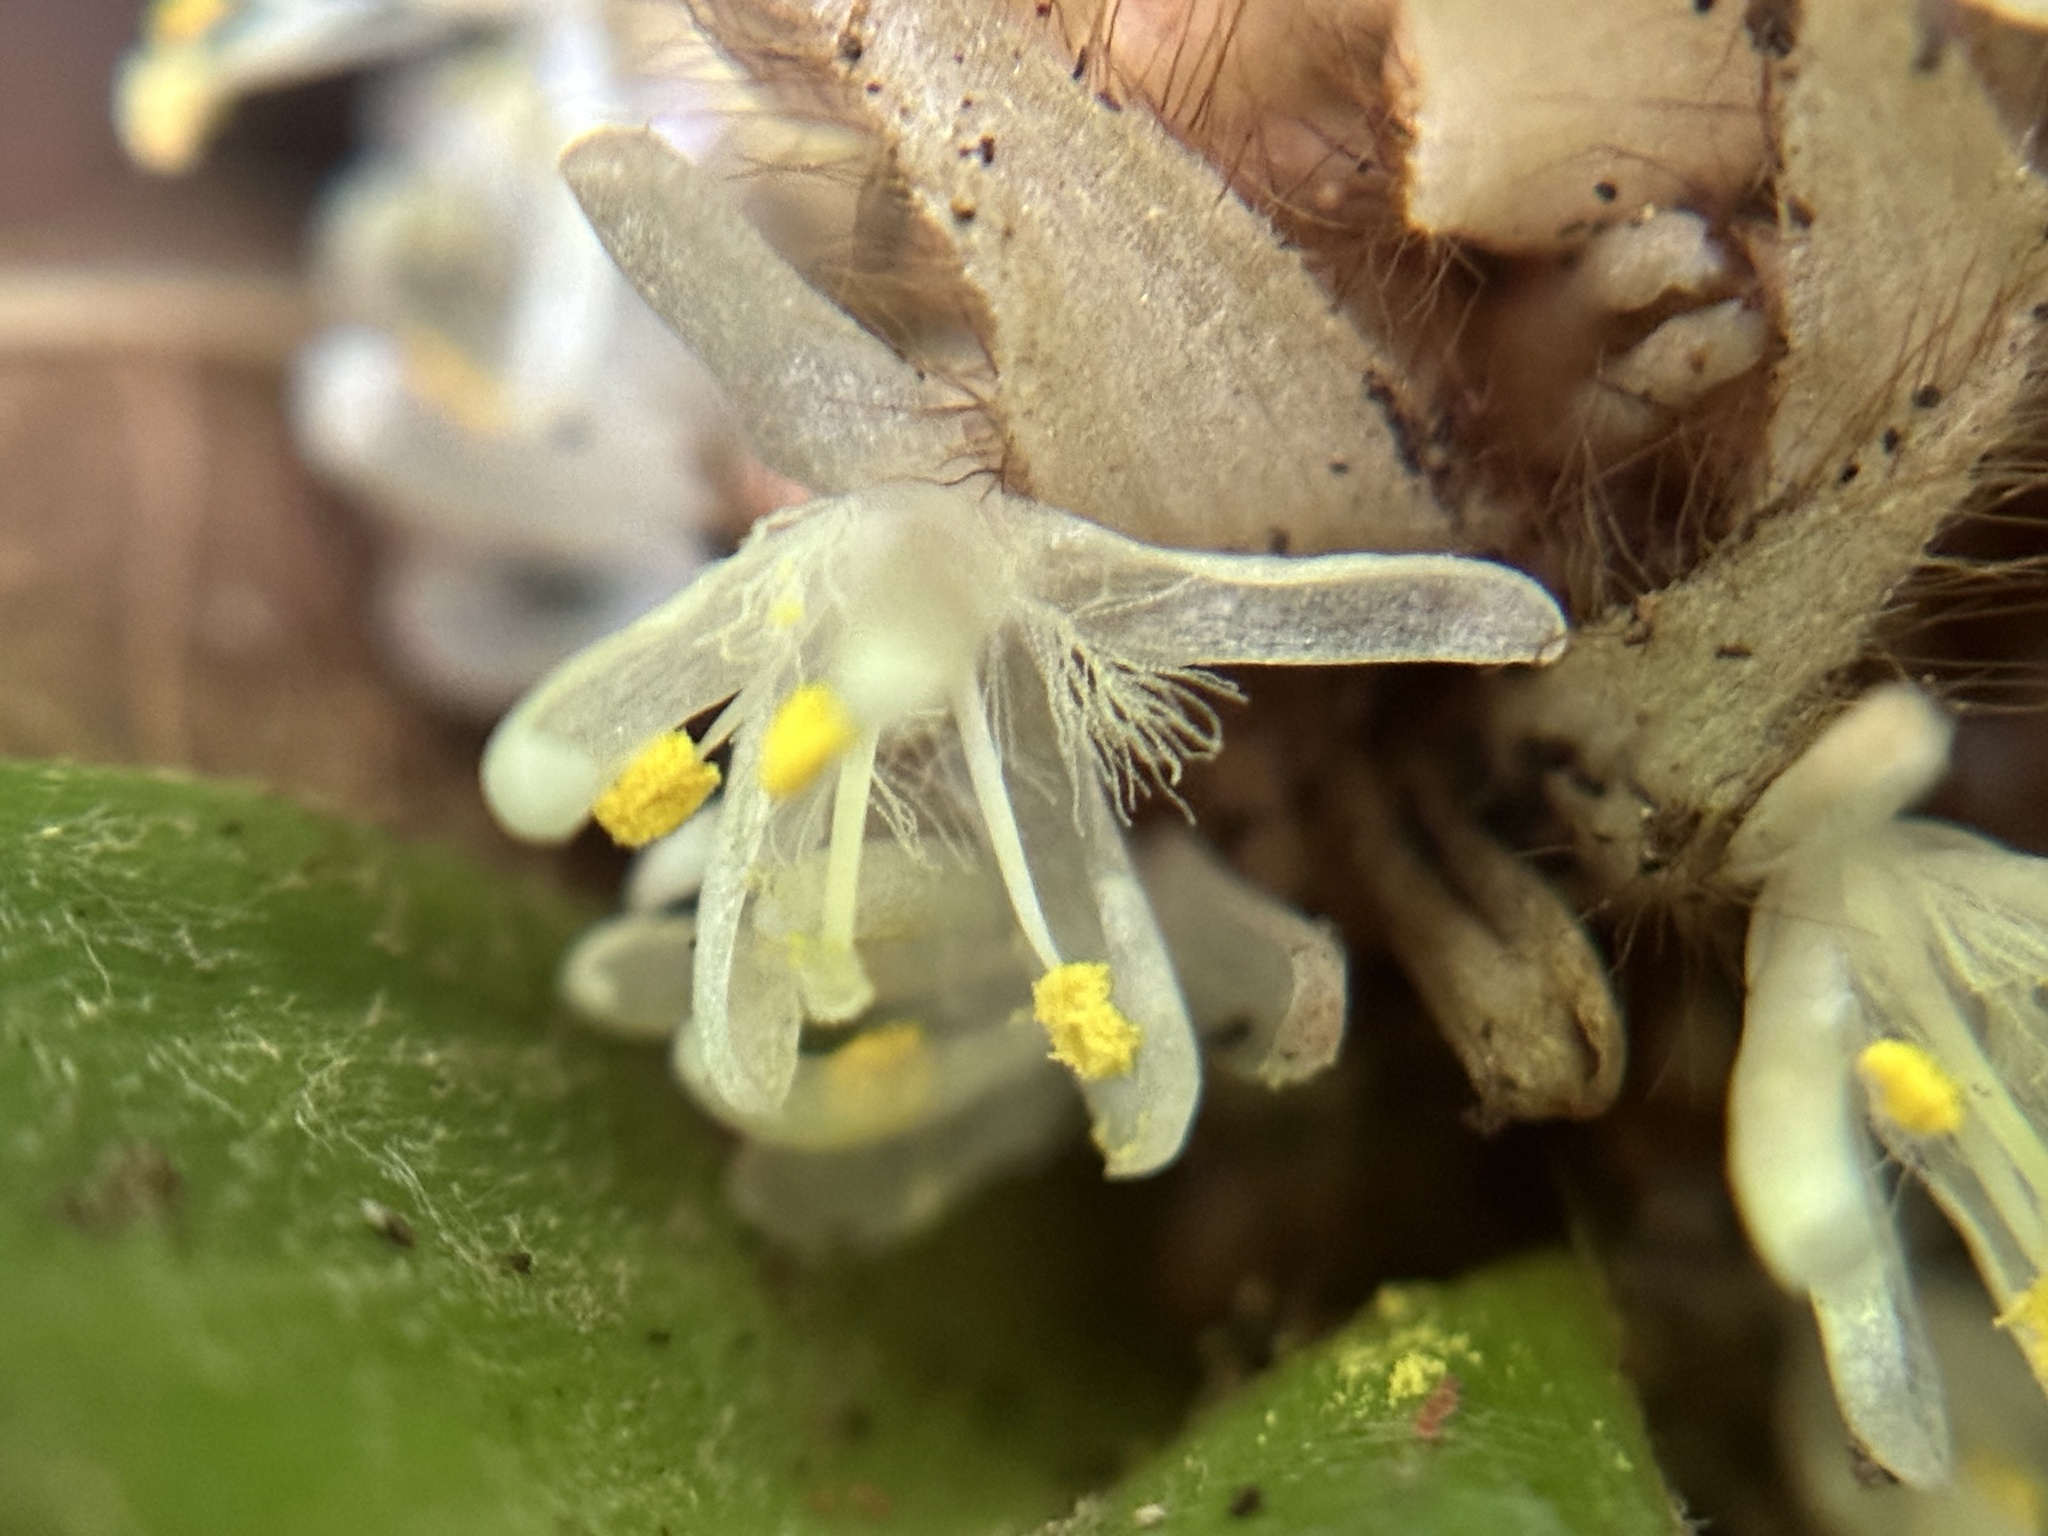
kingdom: Plantae
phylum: Tracheophyta
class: Liliopsida
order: Commelinales
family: Commelinaceae
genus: Palisota
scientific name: Palisota bracteosa
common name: Palisota
